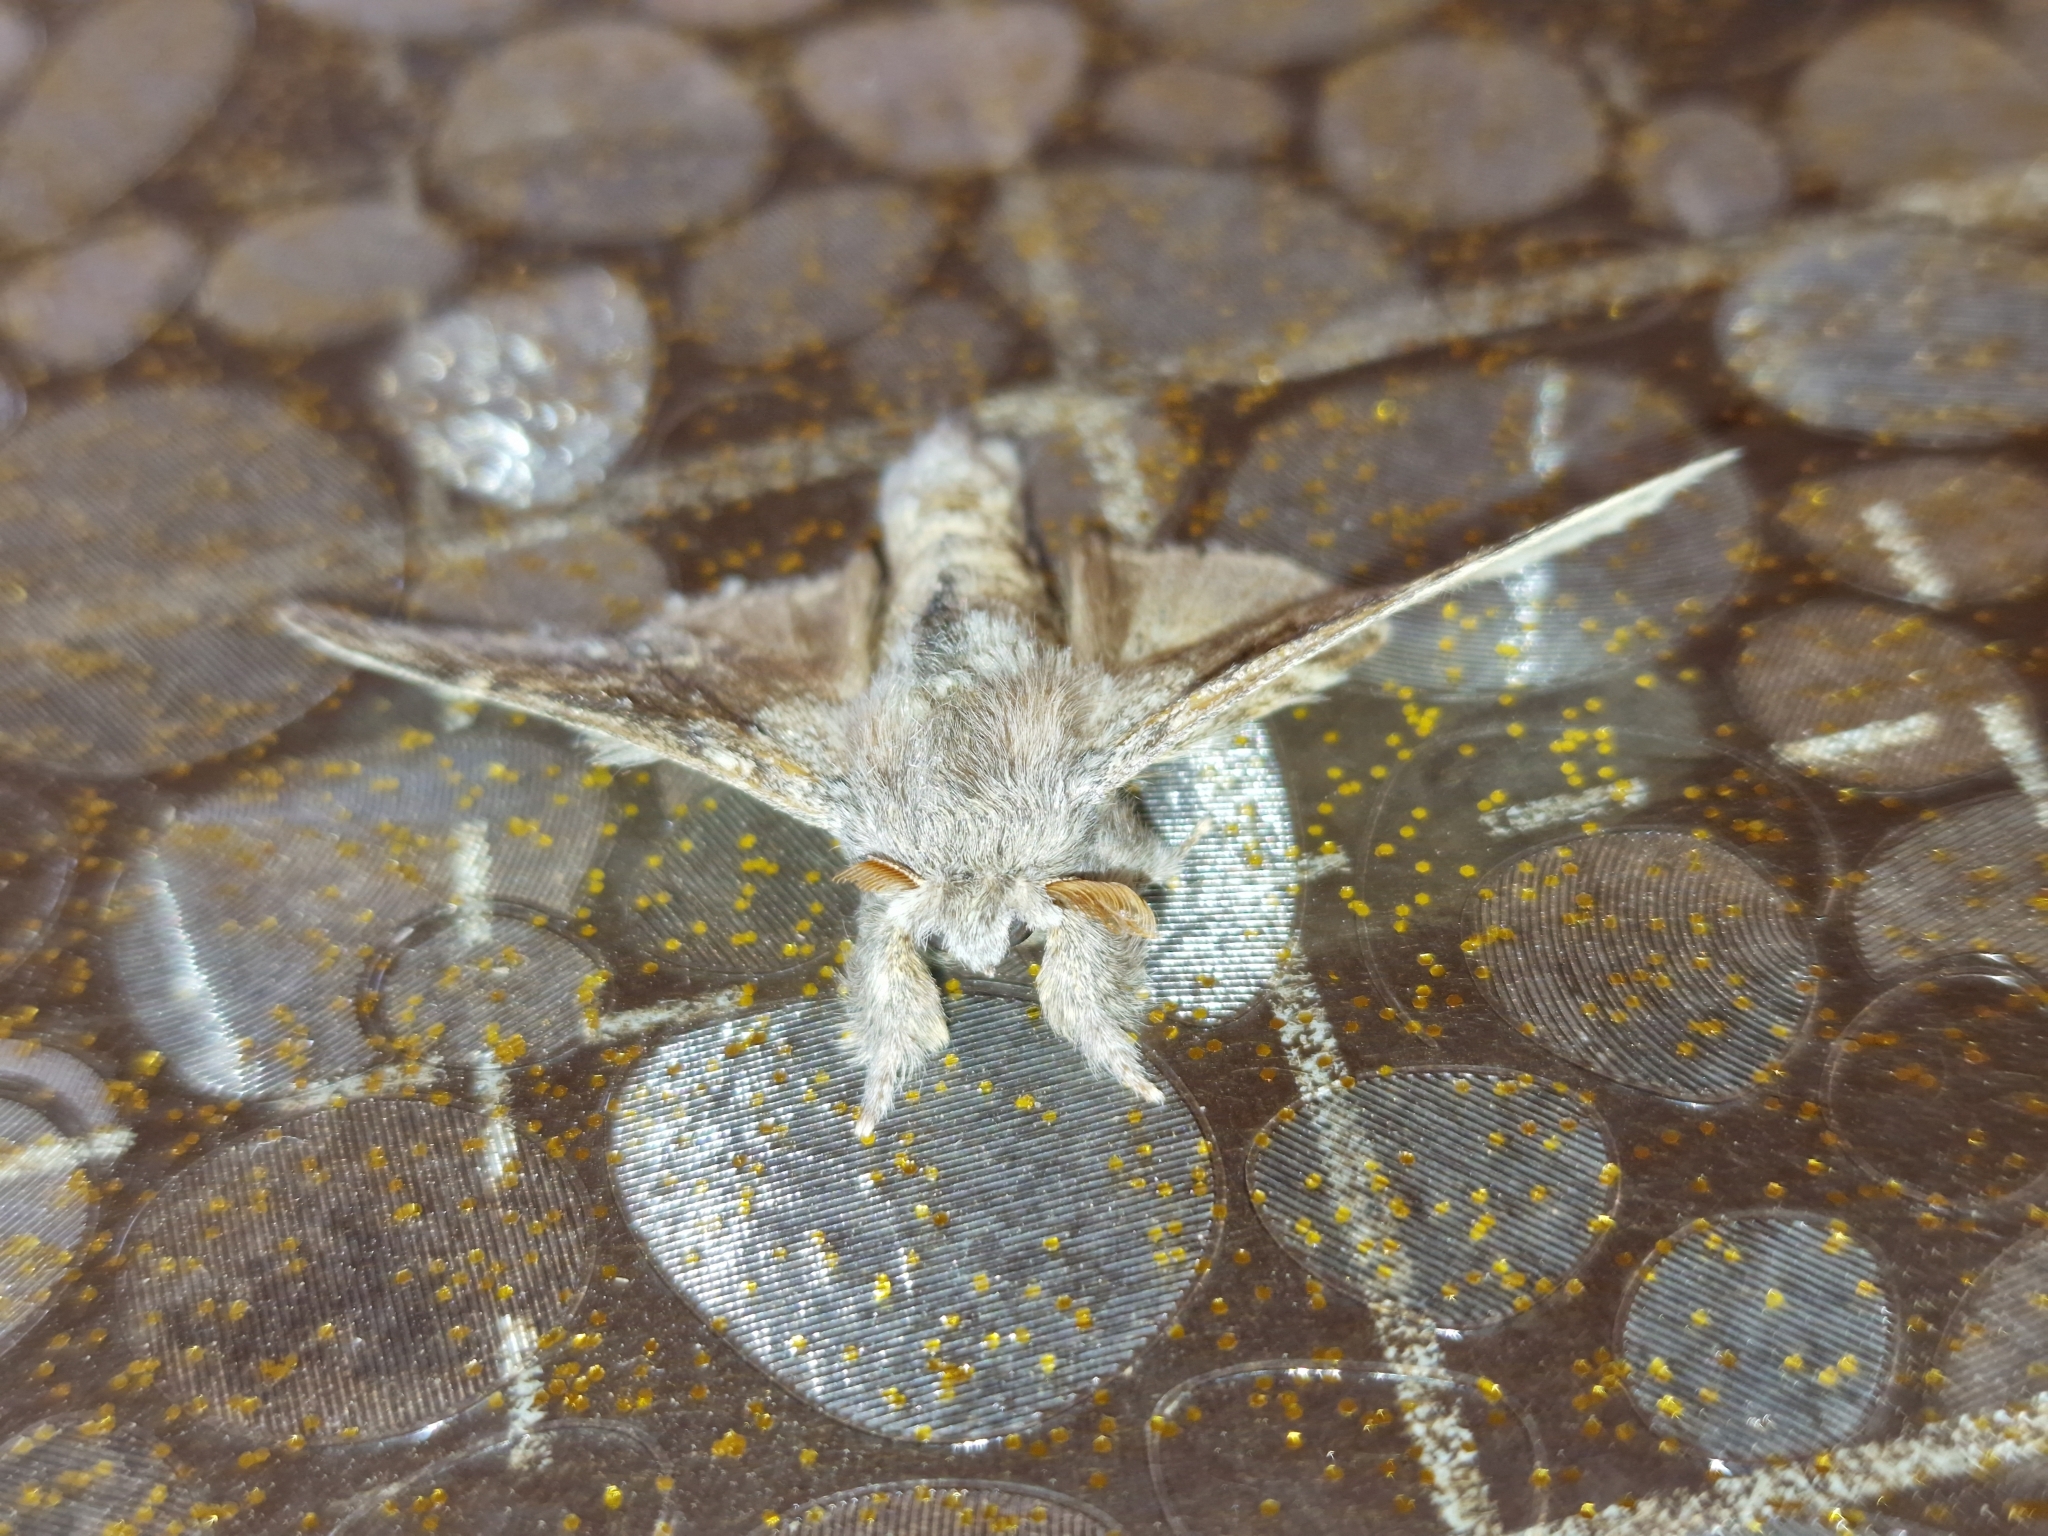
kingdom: Animalia
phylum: Arthropoda
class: Insecta
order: Lepidoptera
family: Notodontidae
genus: Stauropus
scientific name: Stauropus fagi
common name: Lobster moth
